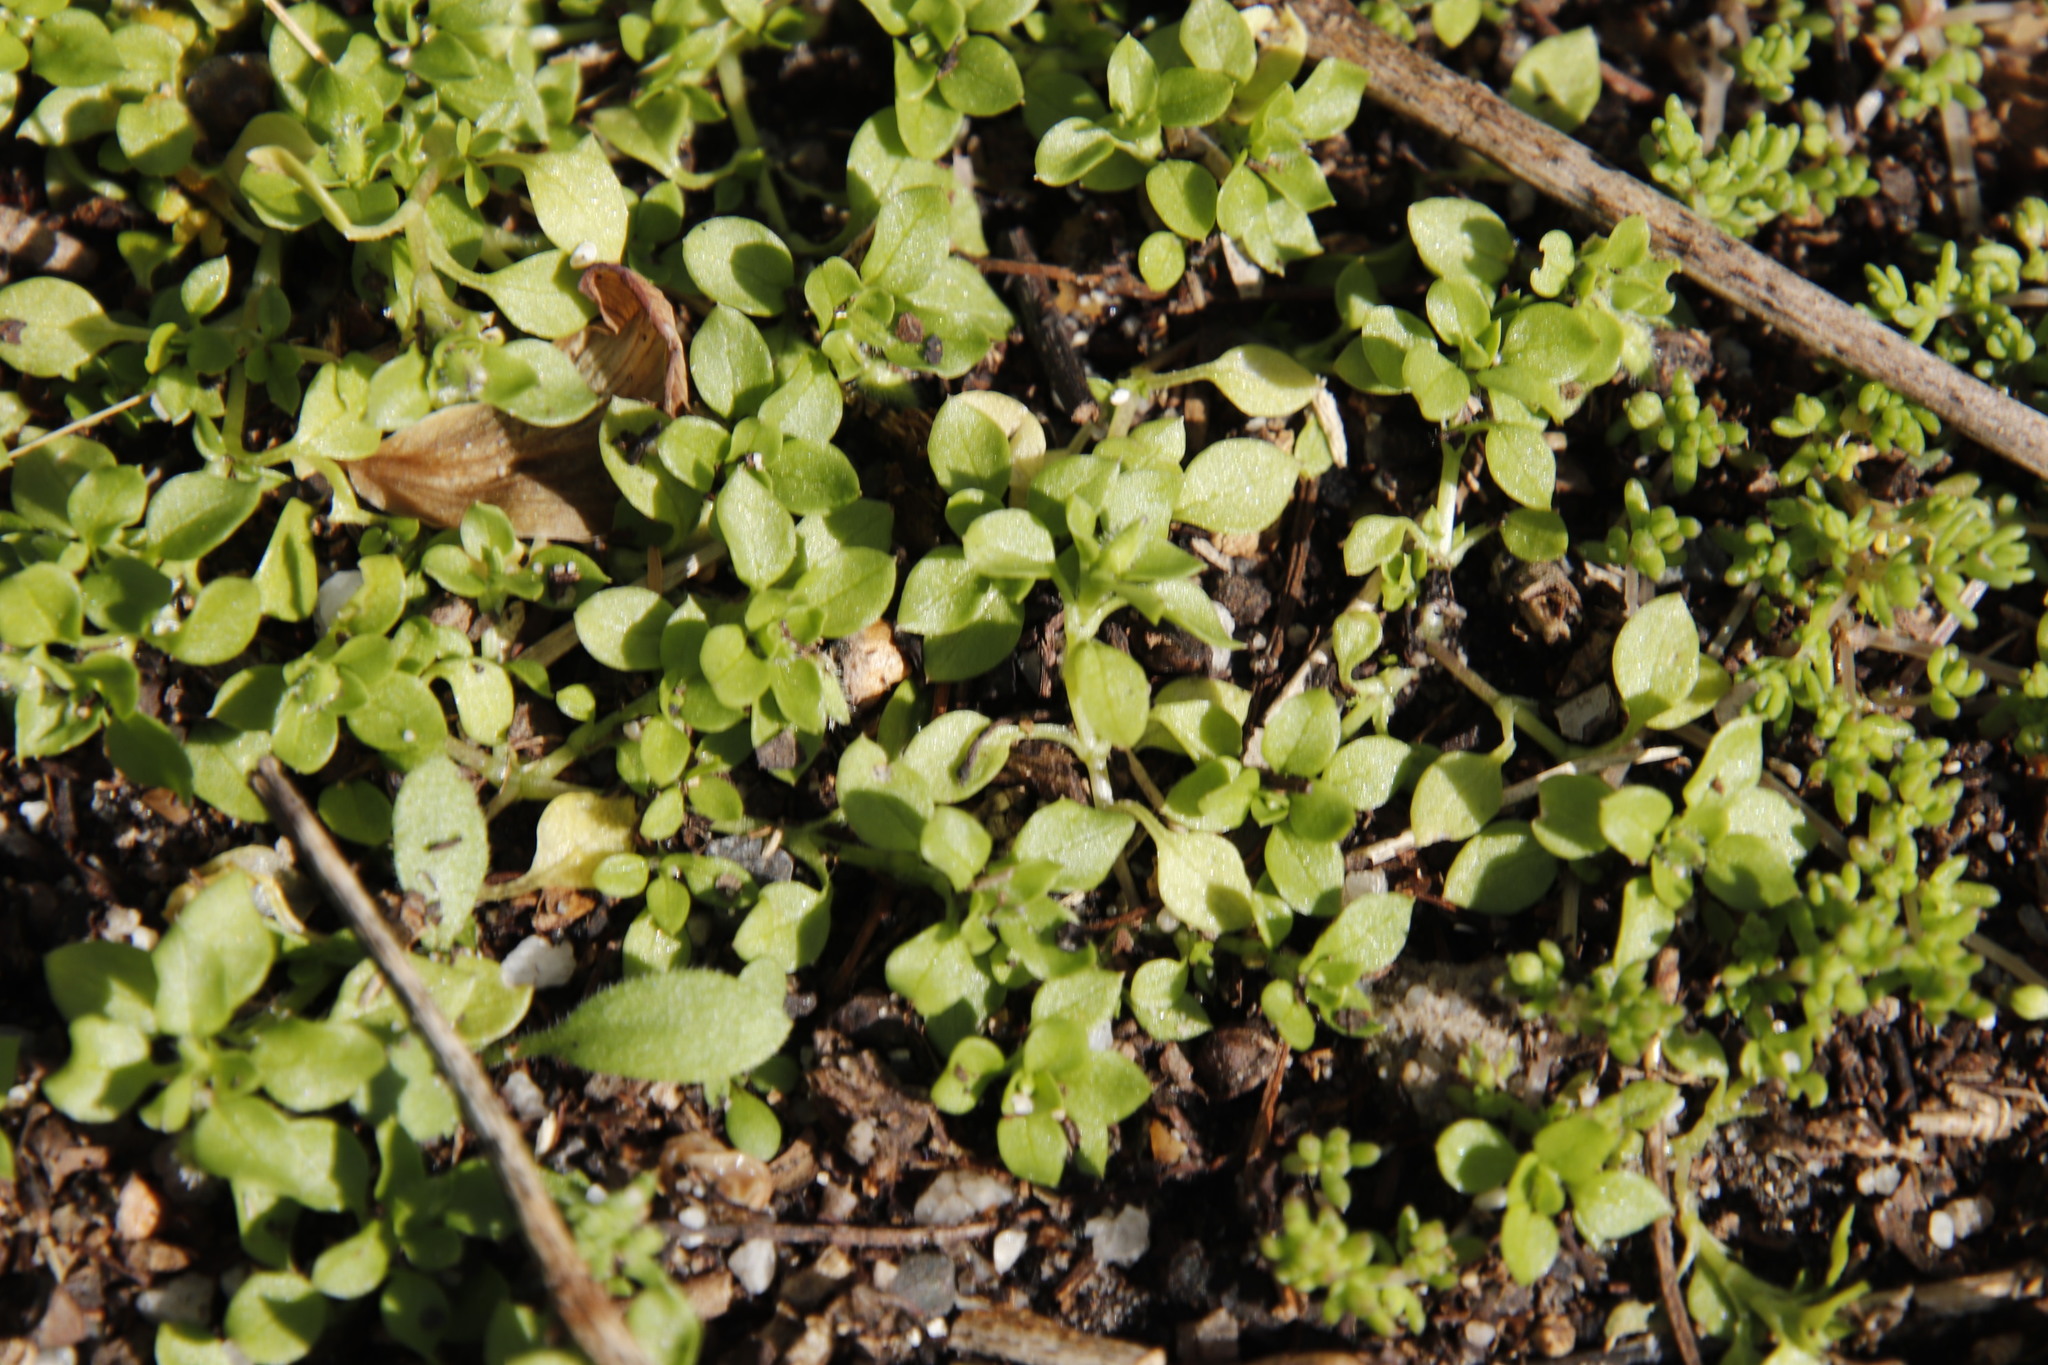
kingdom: Plantae
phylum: Tracheophyta
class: Magnoliopsida
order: Caryophyllales
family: Caryophyllaceae
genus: Stellaria
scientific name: Stellaria media
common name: Common chickweed
